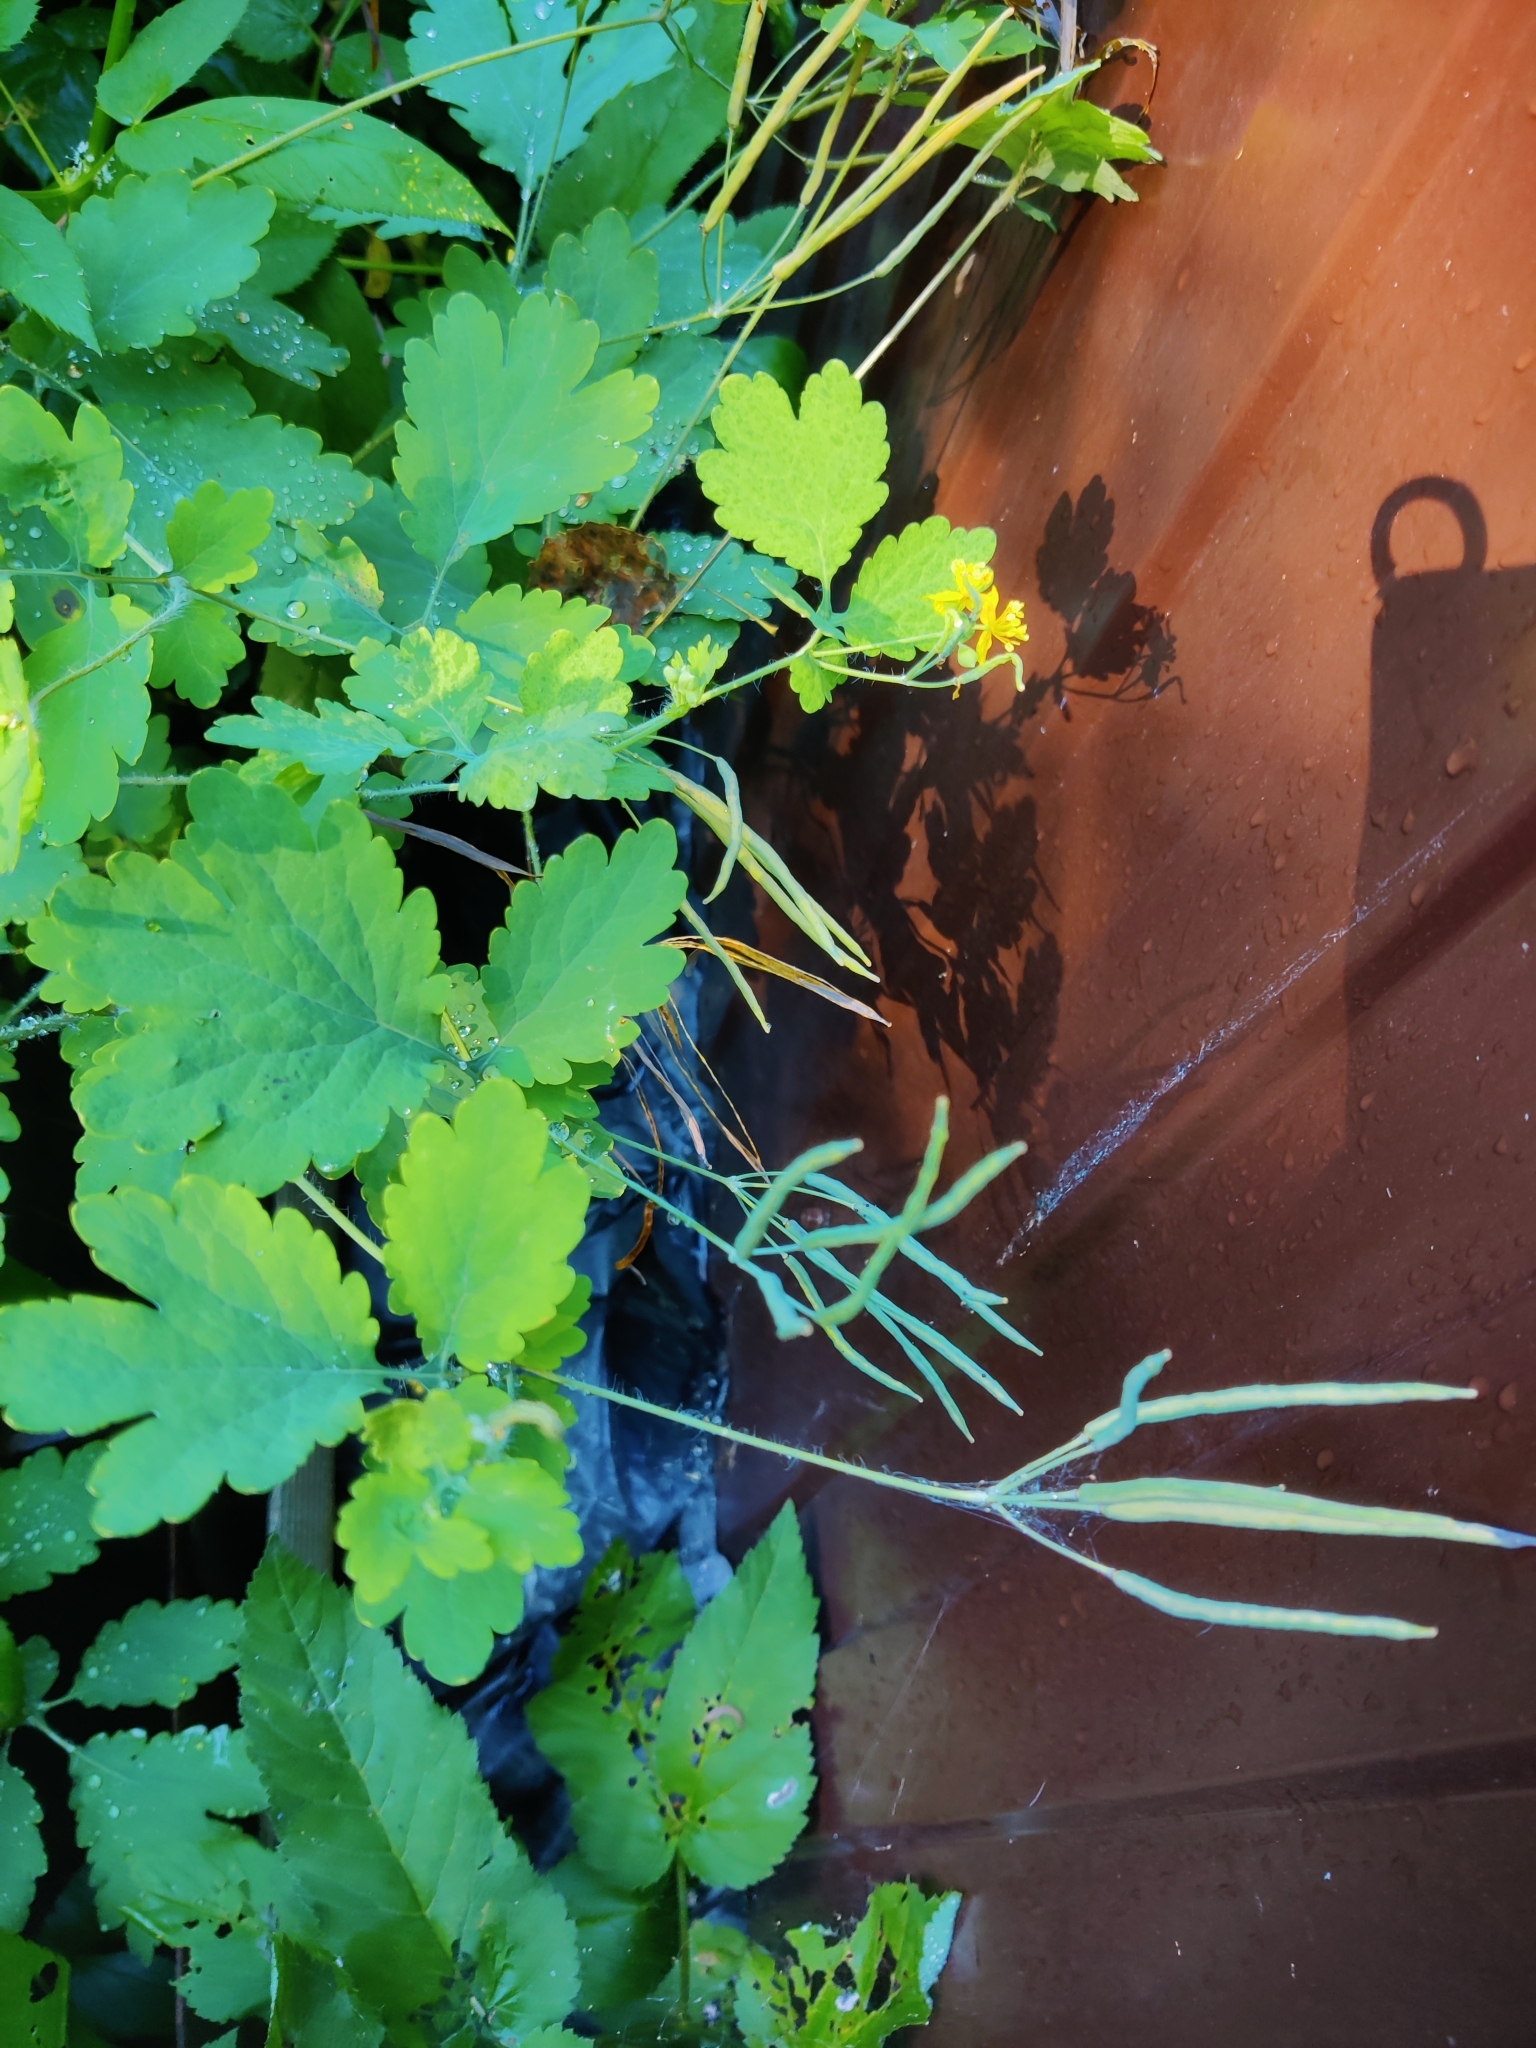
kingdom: Plantae
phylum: Tracheophyta
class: Magnoliopsida
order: Ranunculales
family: Papaveraceae
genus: Chelidonium
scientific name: Chelidonium majus
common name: Greater celandine
